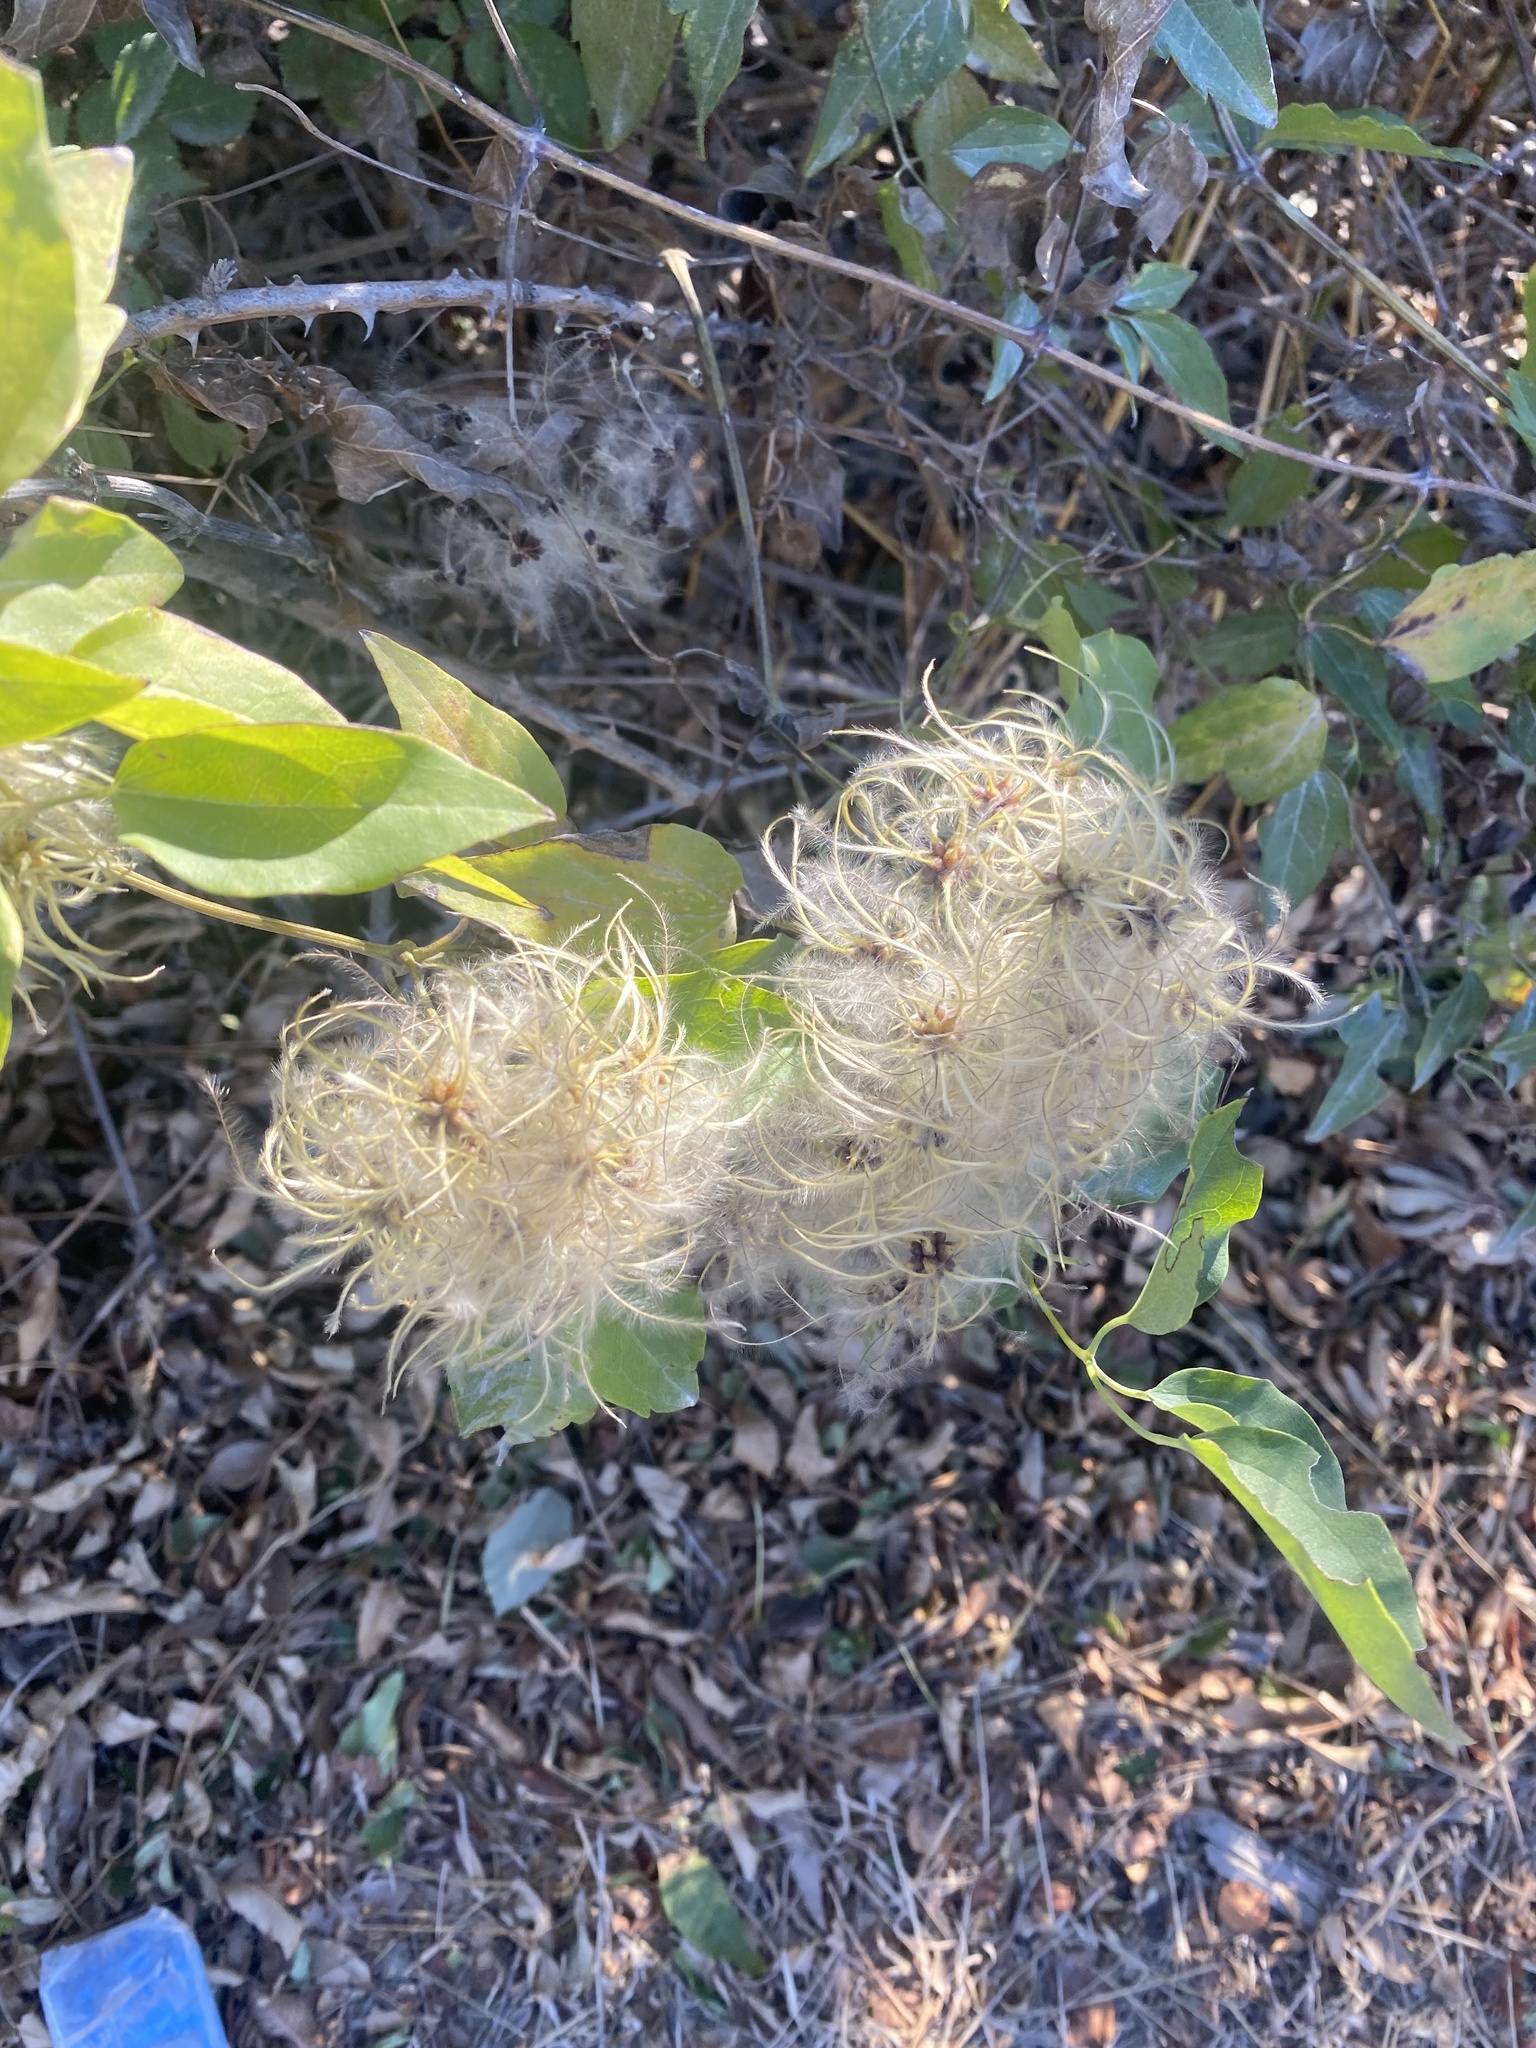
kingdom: Plantae
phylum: Tracheophyta
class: Magnoliopsida
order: Ranunculales
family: Ranunculaceae
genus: Clematis
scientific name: Clematis vitalba
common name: Evergreen clematis
